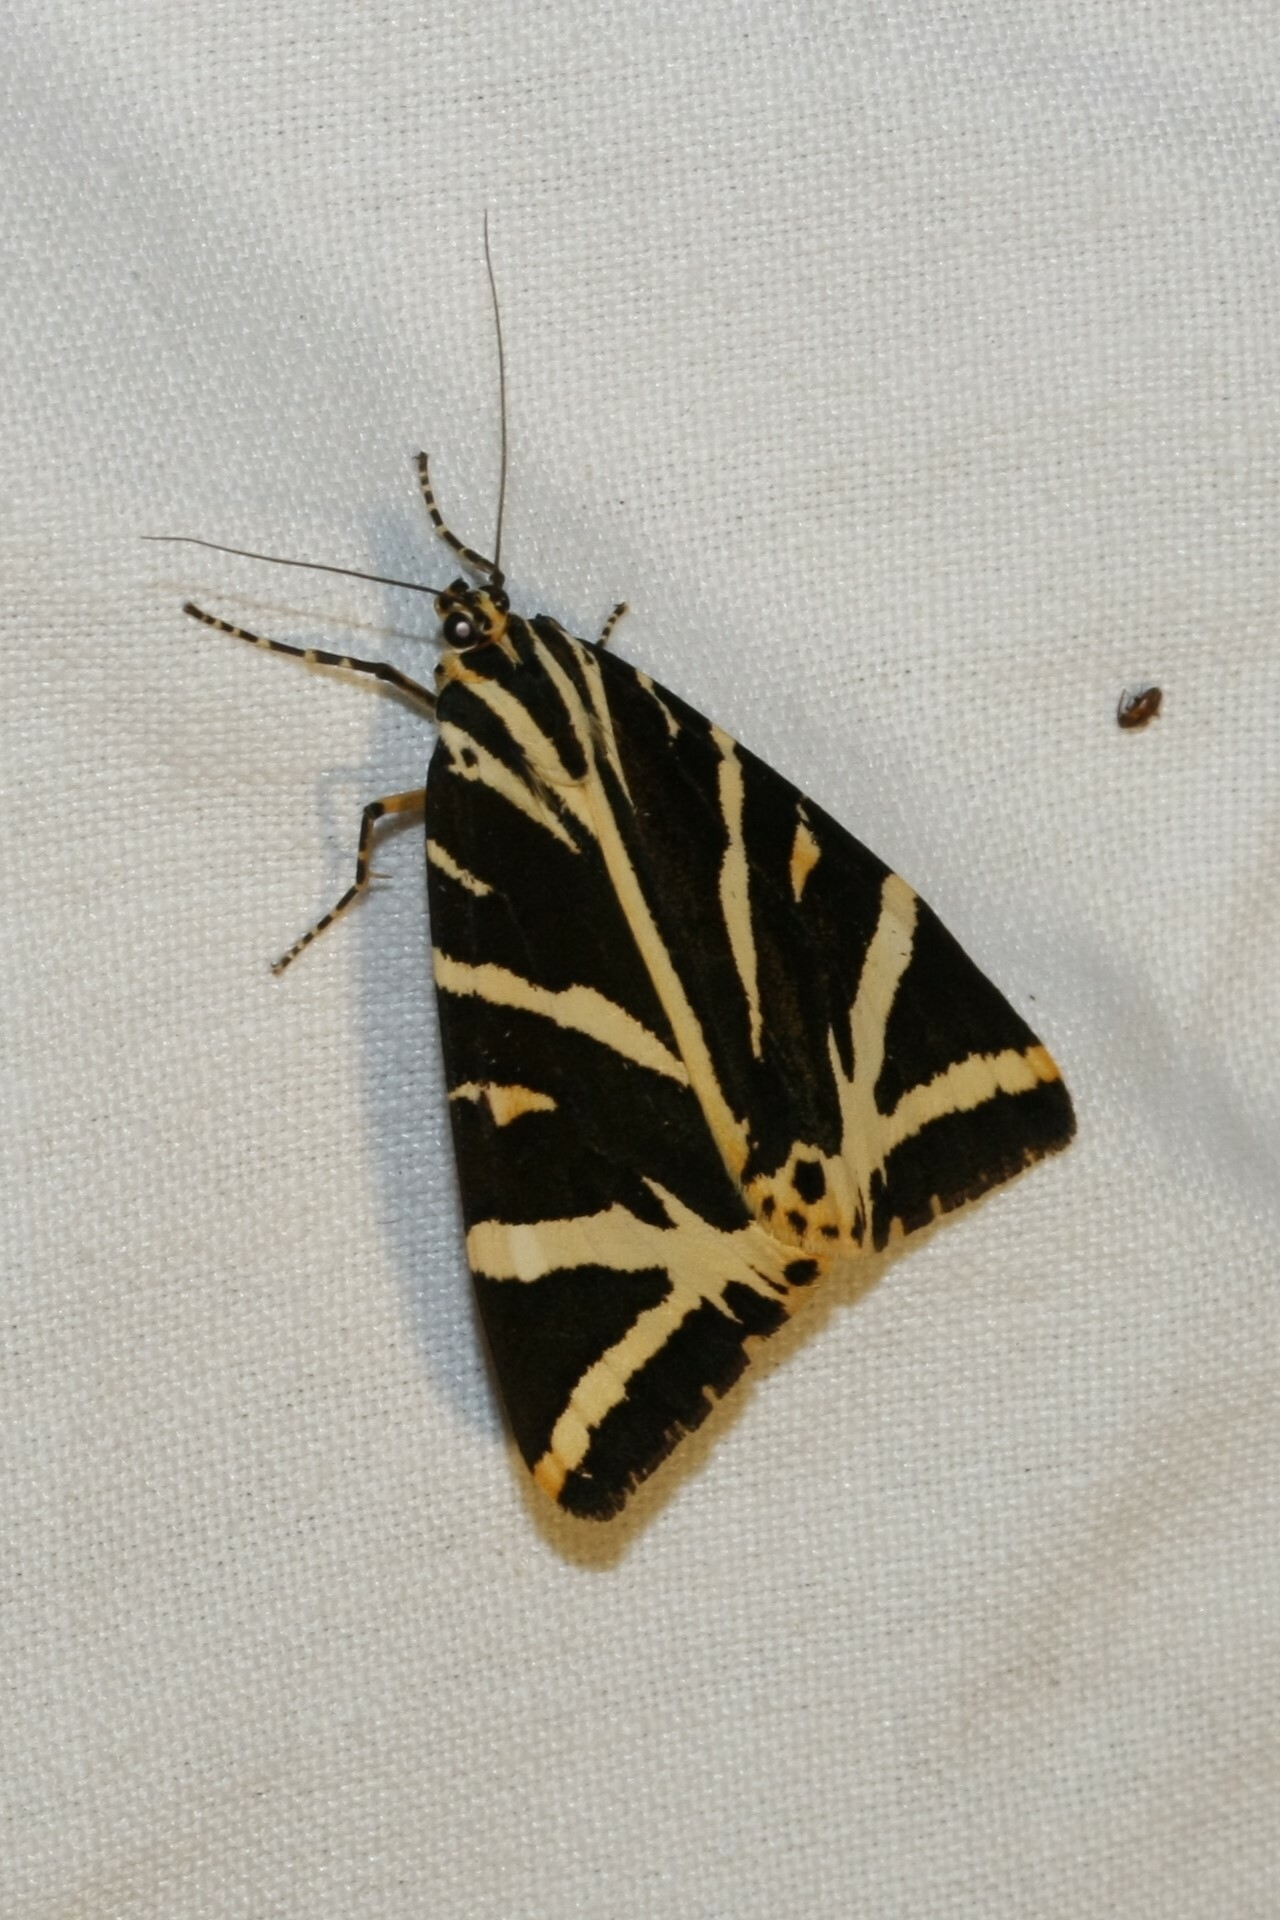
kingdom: Animalia
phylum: Arthropoda
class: Insecta
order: Lepidoptera
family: Erebidae
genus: Euplagia
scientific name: Euplagia quadripunctaria
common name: Jersey tiger
